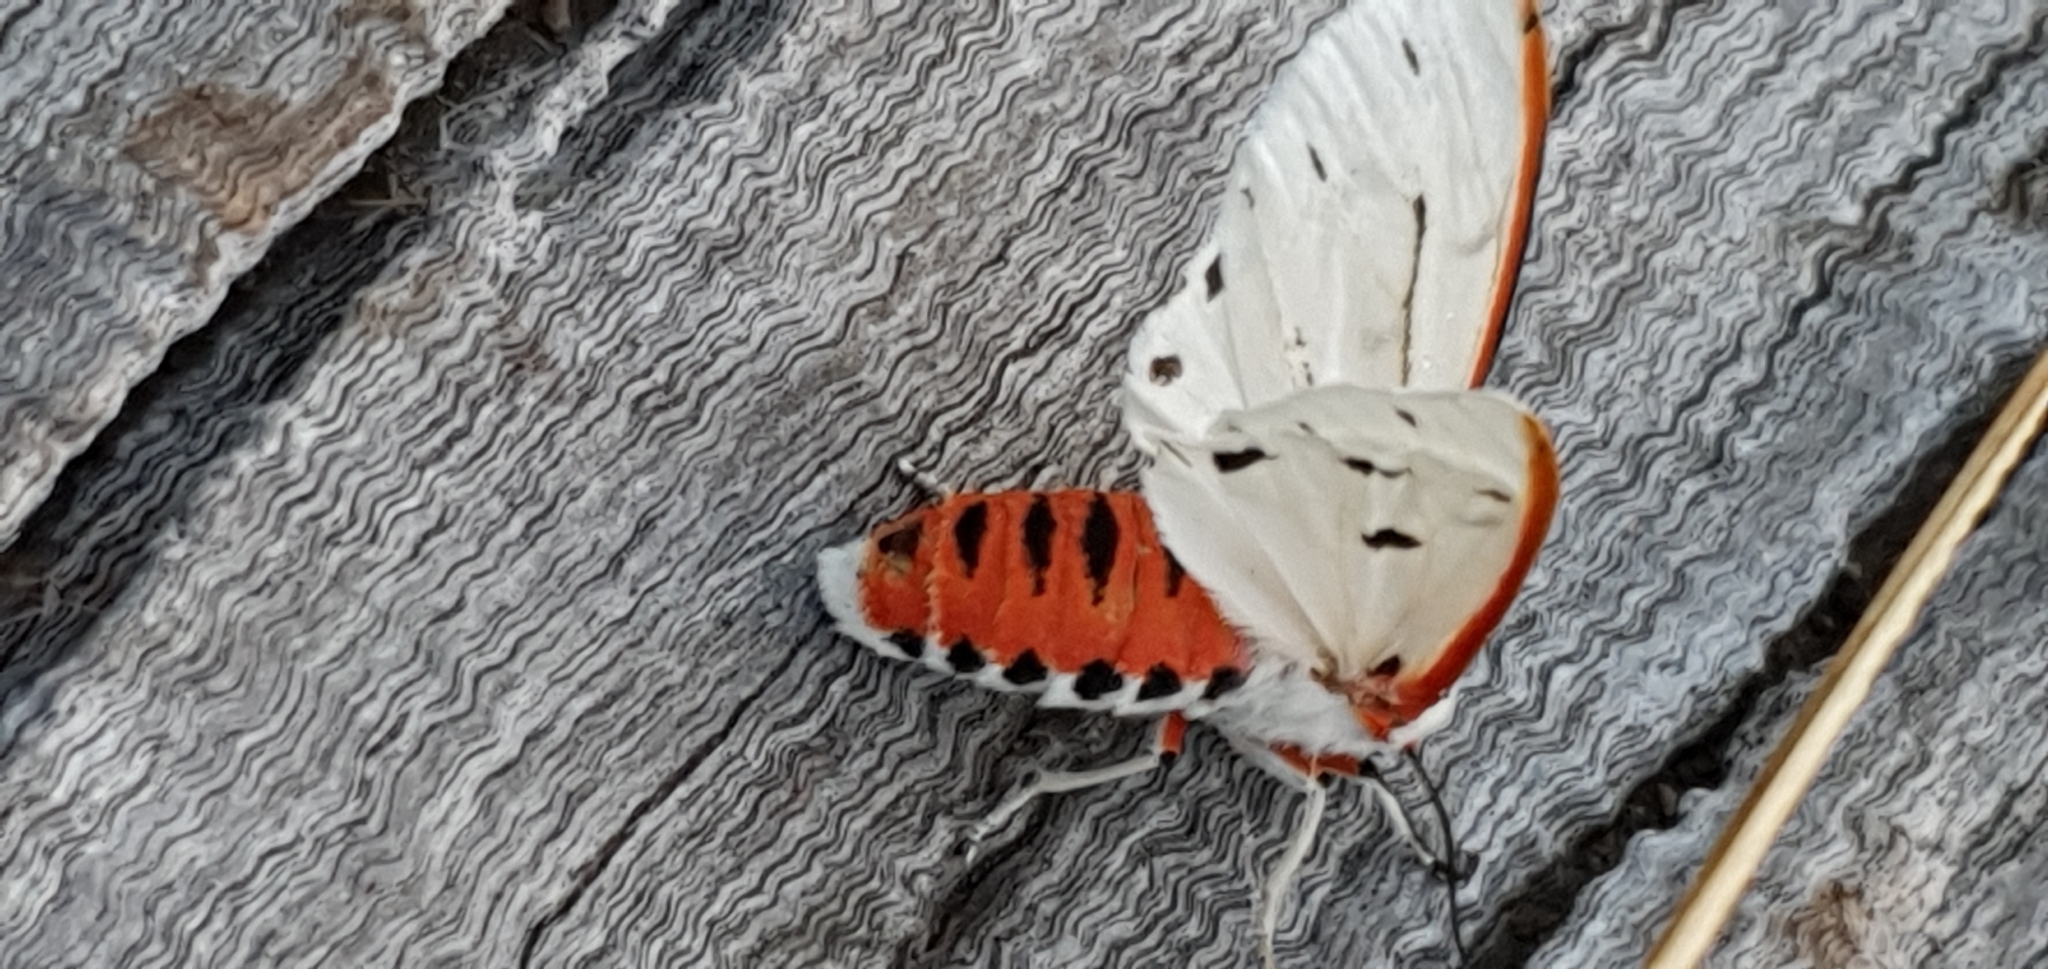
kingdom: Animalia
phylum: Arthropoda
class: Insecta
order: Lepidoptera
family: Erebidae
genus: Aloa
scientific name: Aloa marginata
